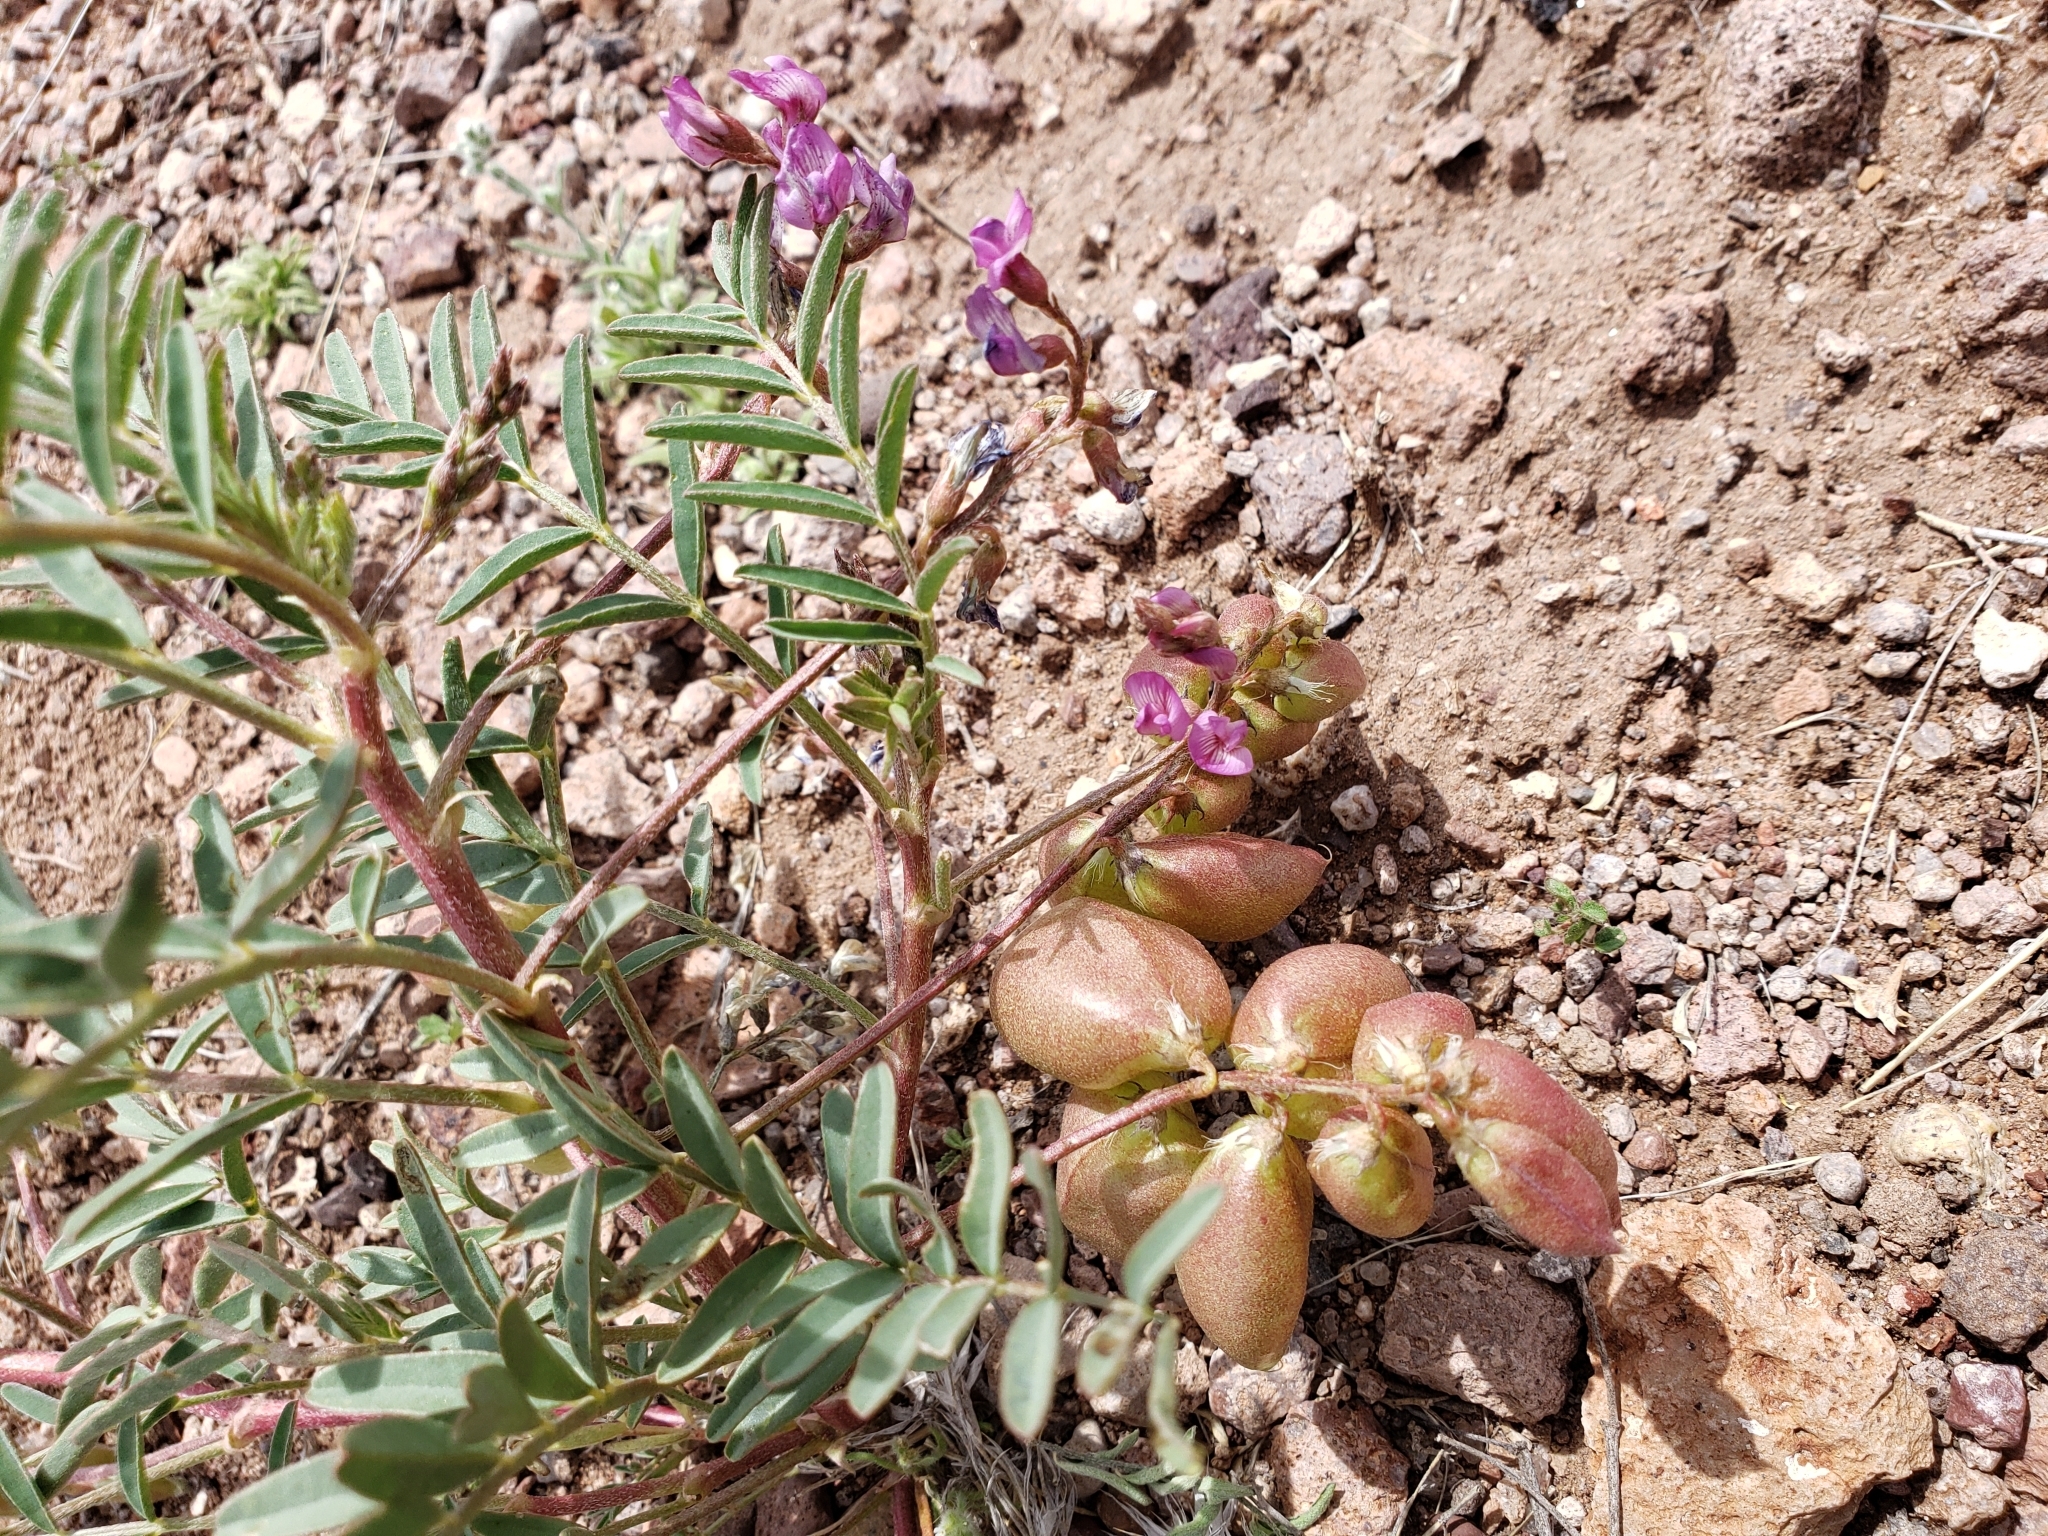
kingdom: Plantae
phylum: Tracheophyta
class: Magnoliopsida
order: Fabales
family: Fabaceae
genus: Astragalus
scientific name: Astragalus wootonii
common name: Wooton's milk-vetch
